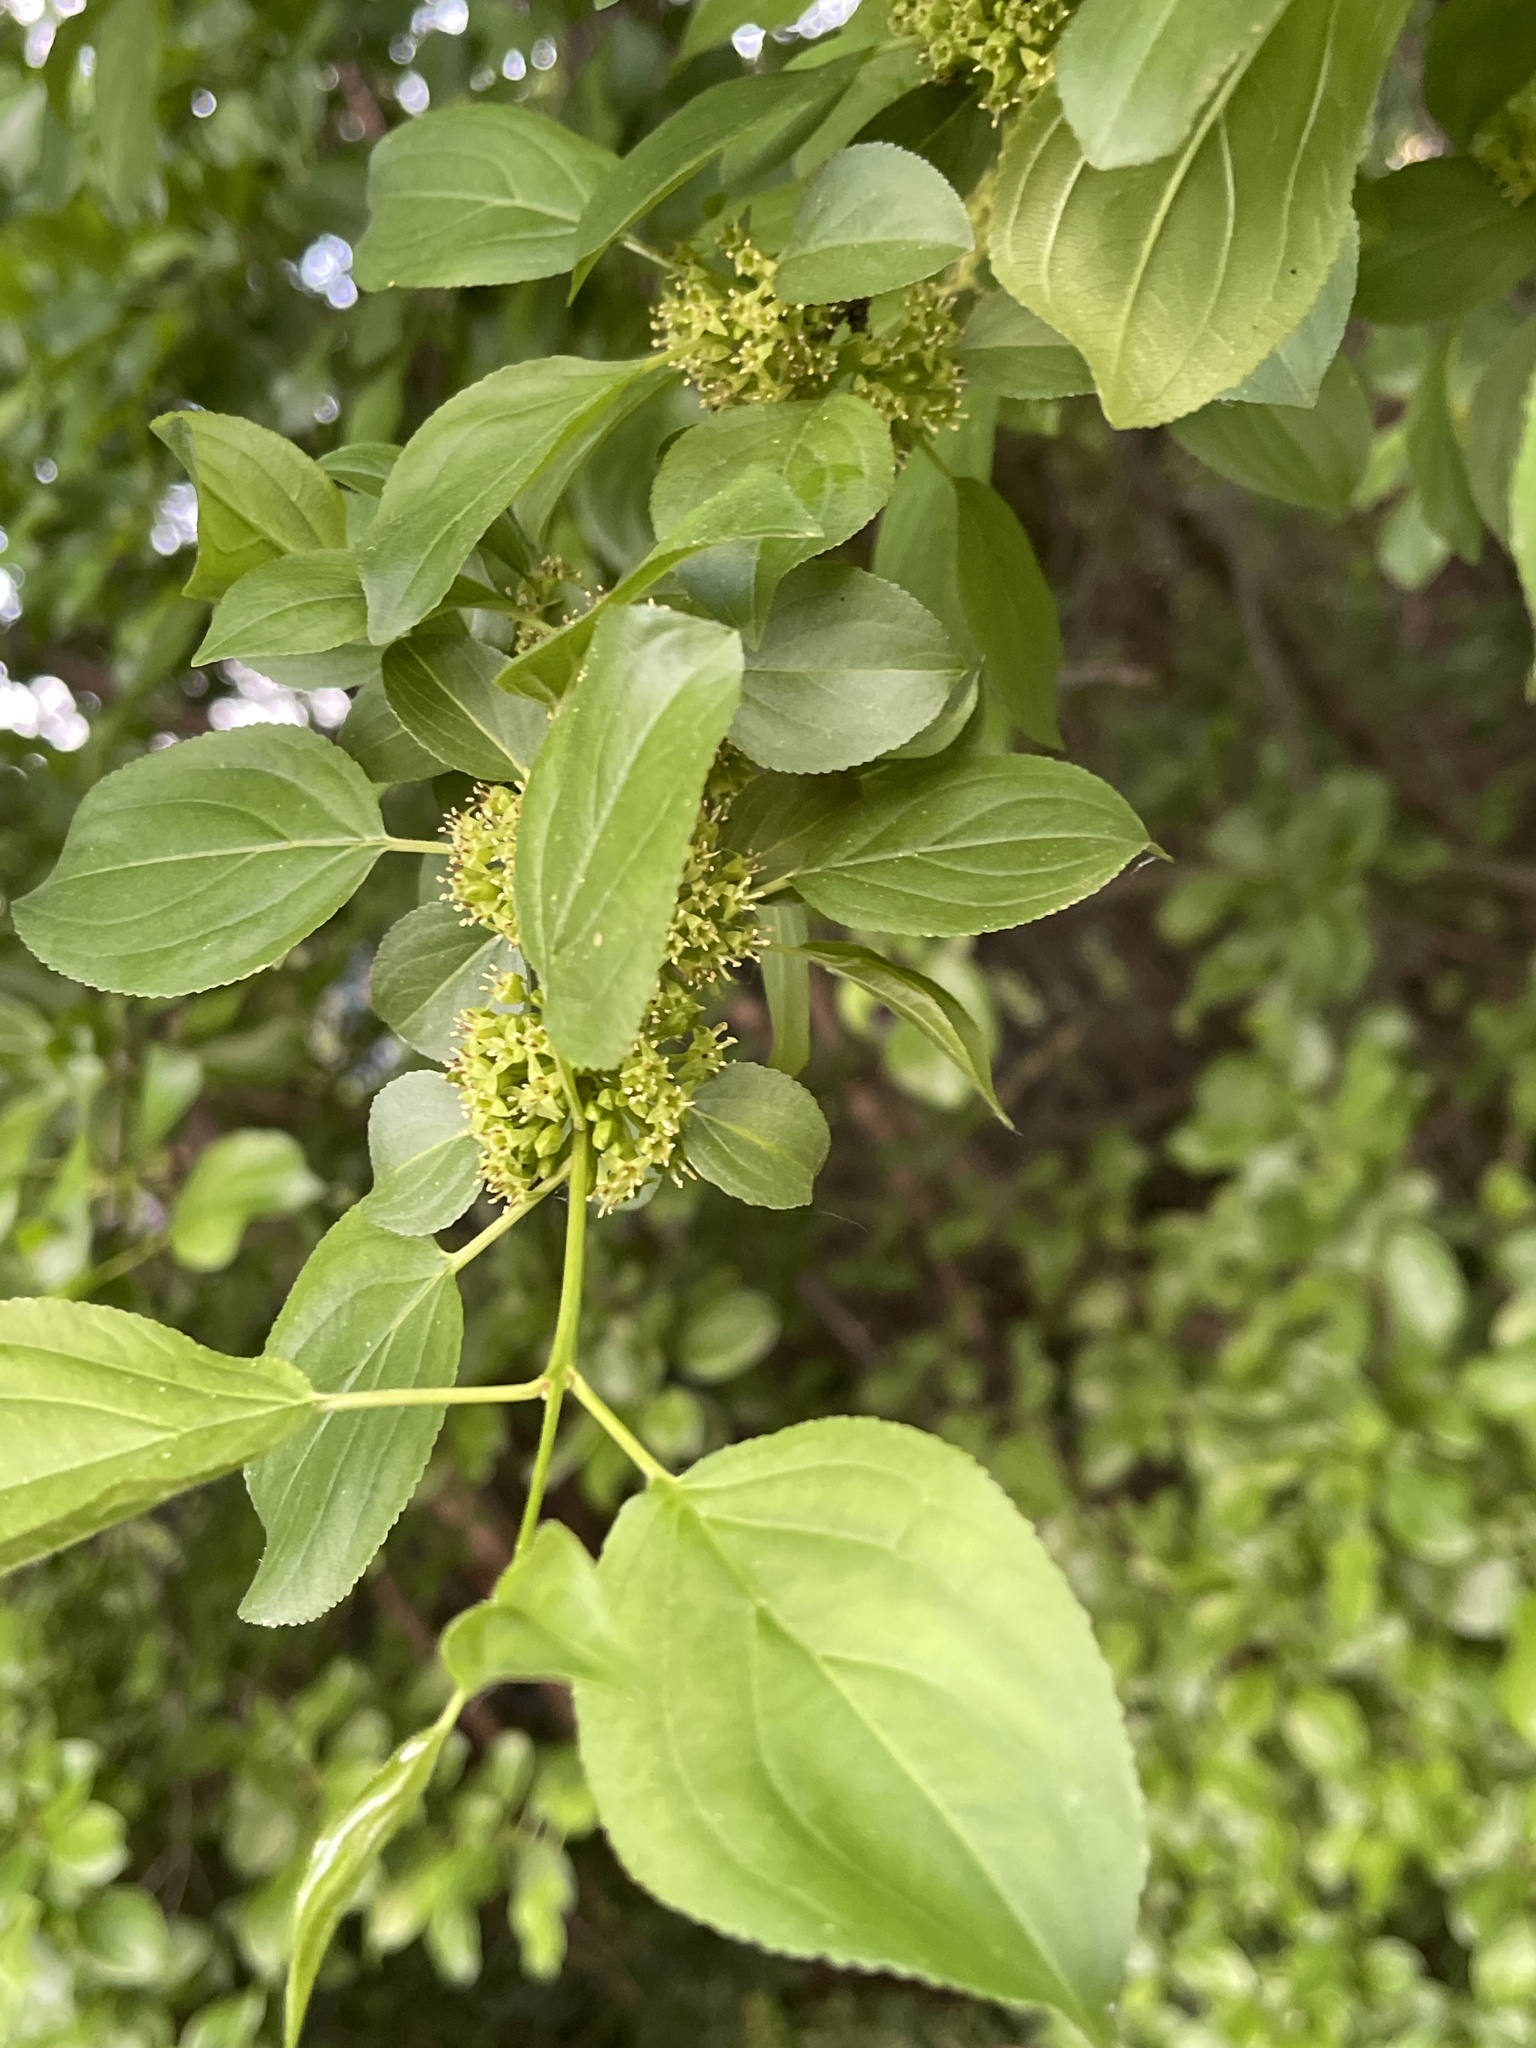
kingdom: Plantae
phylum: Tracheophyta
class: Magnoliopsida
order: Rosales
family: Rhamnaceae
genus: Rhamnus
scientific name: Rhamnus cathartica
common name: Common buckthorn
